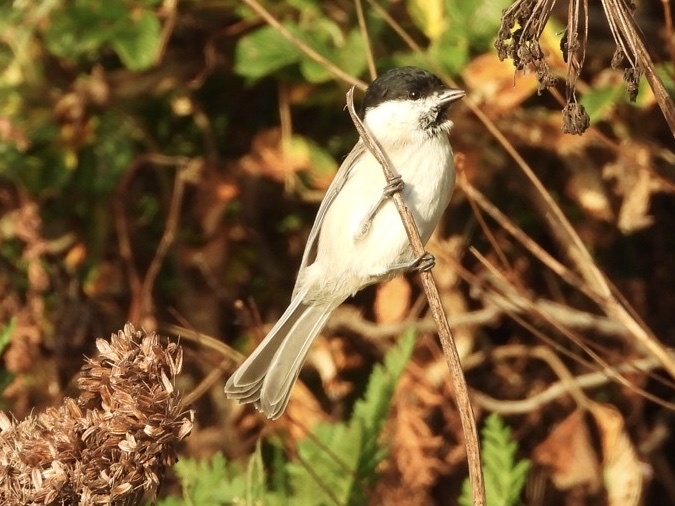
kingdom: Animalia
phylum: Chordata
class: Aves
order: Passeriformes
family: Paridae
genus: Poecile
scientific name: Poecile palustris
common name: Marsh tit
